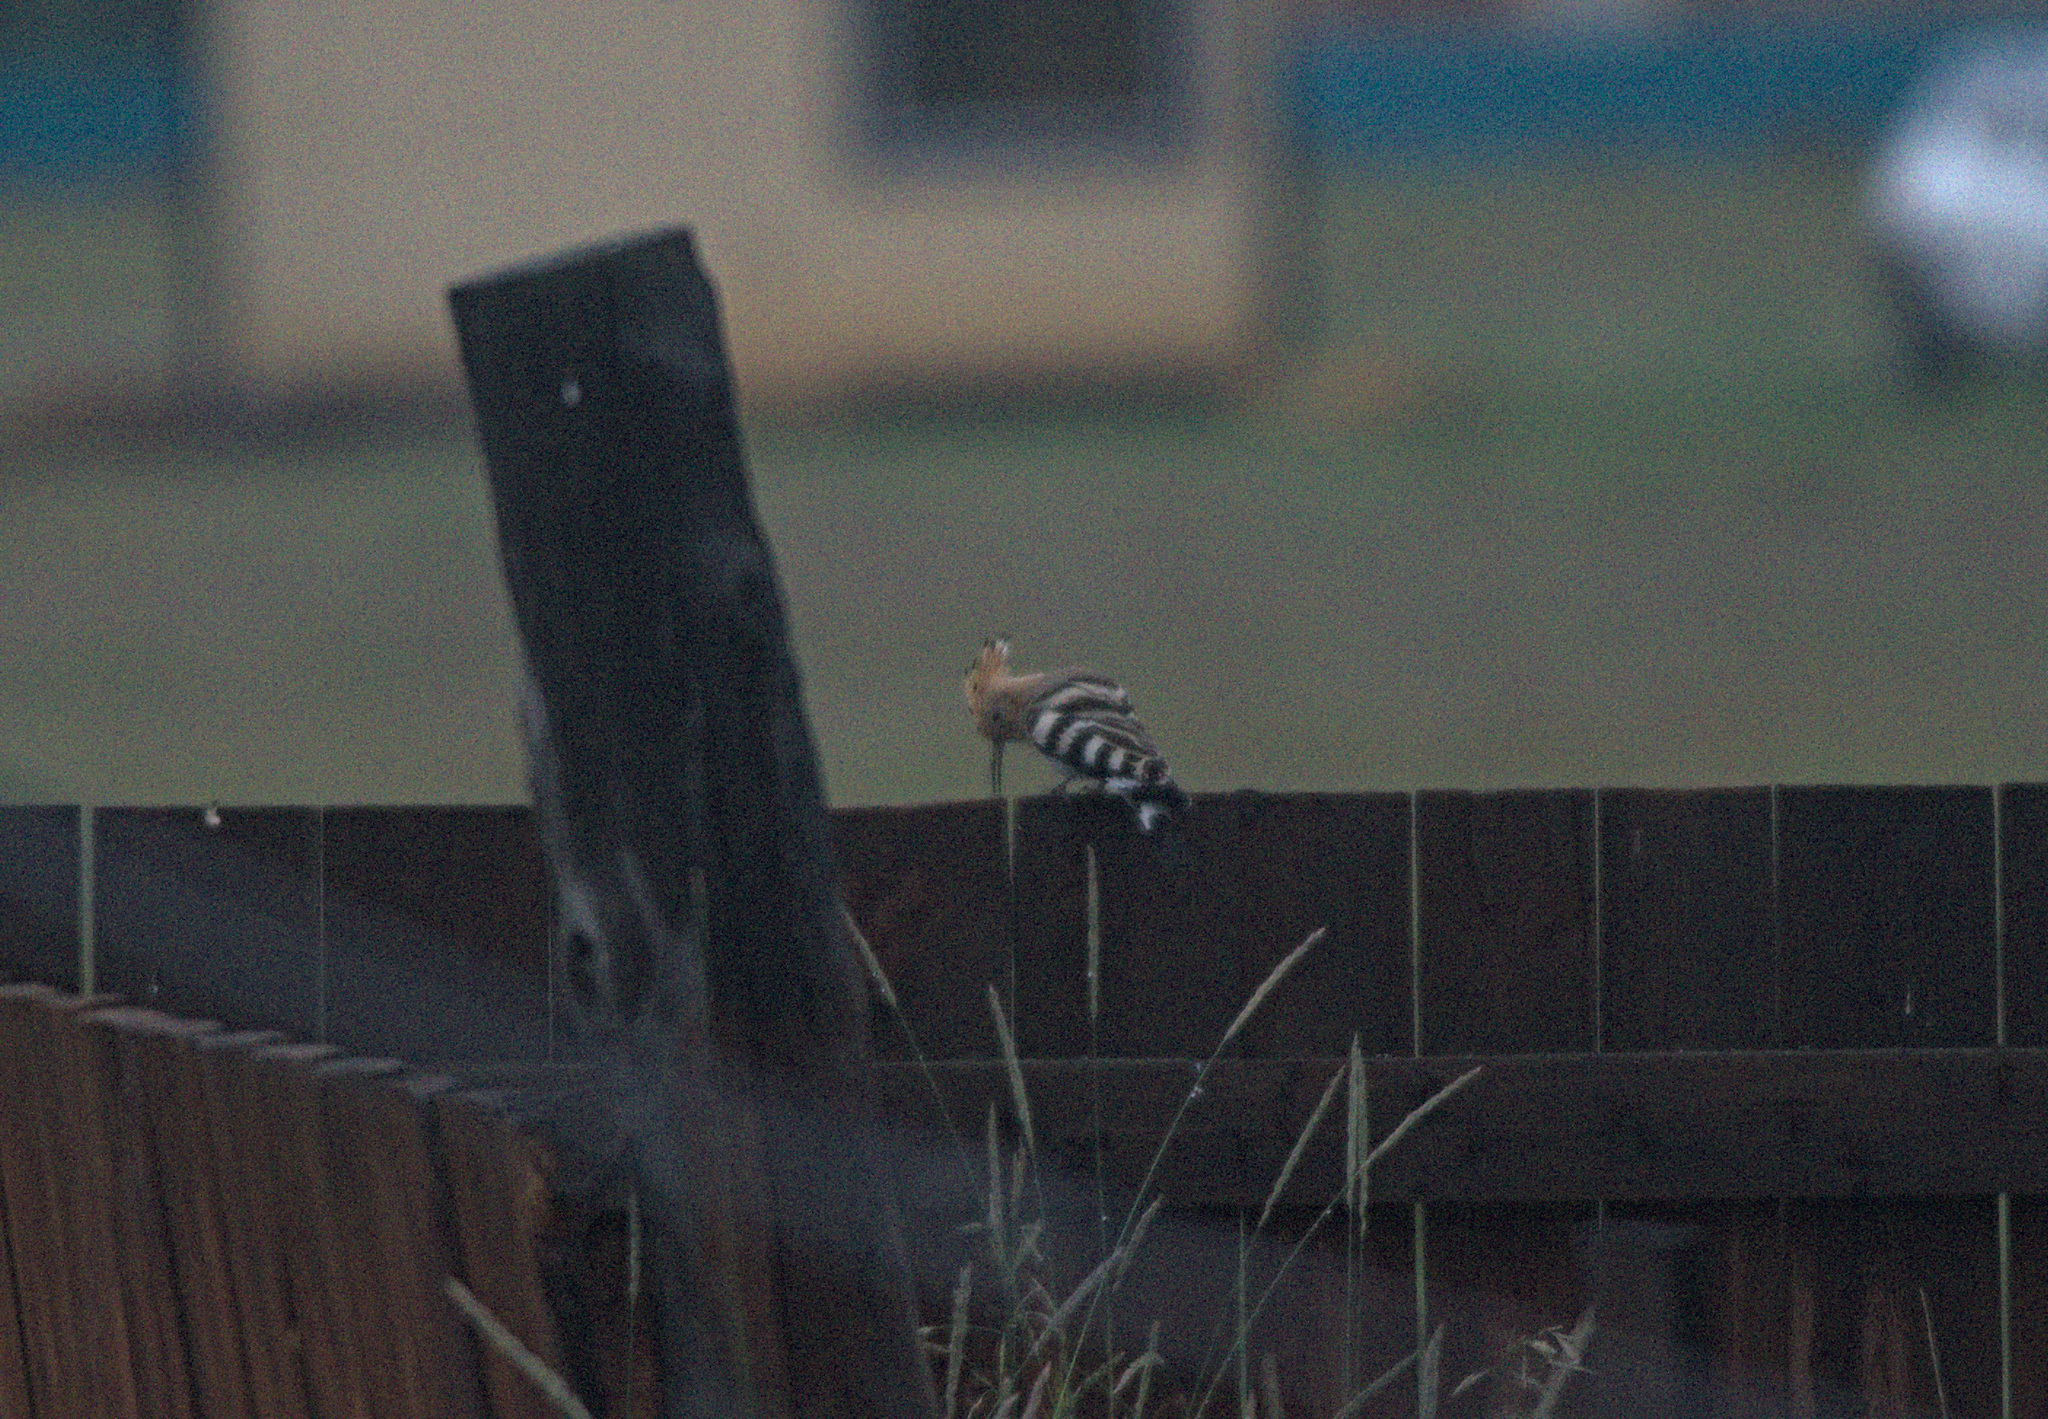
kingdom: Animalia
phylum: Chordata
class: Aves
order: Bucerotiformes
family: Upupidae
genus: Upupa
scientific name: Upupa epops
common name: Eurasian hoopoe
